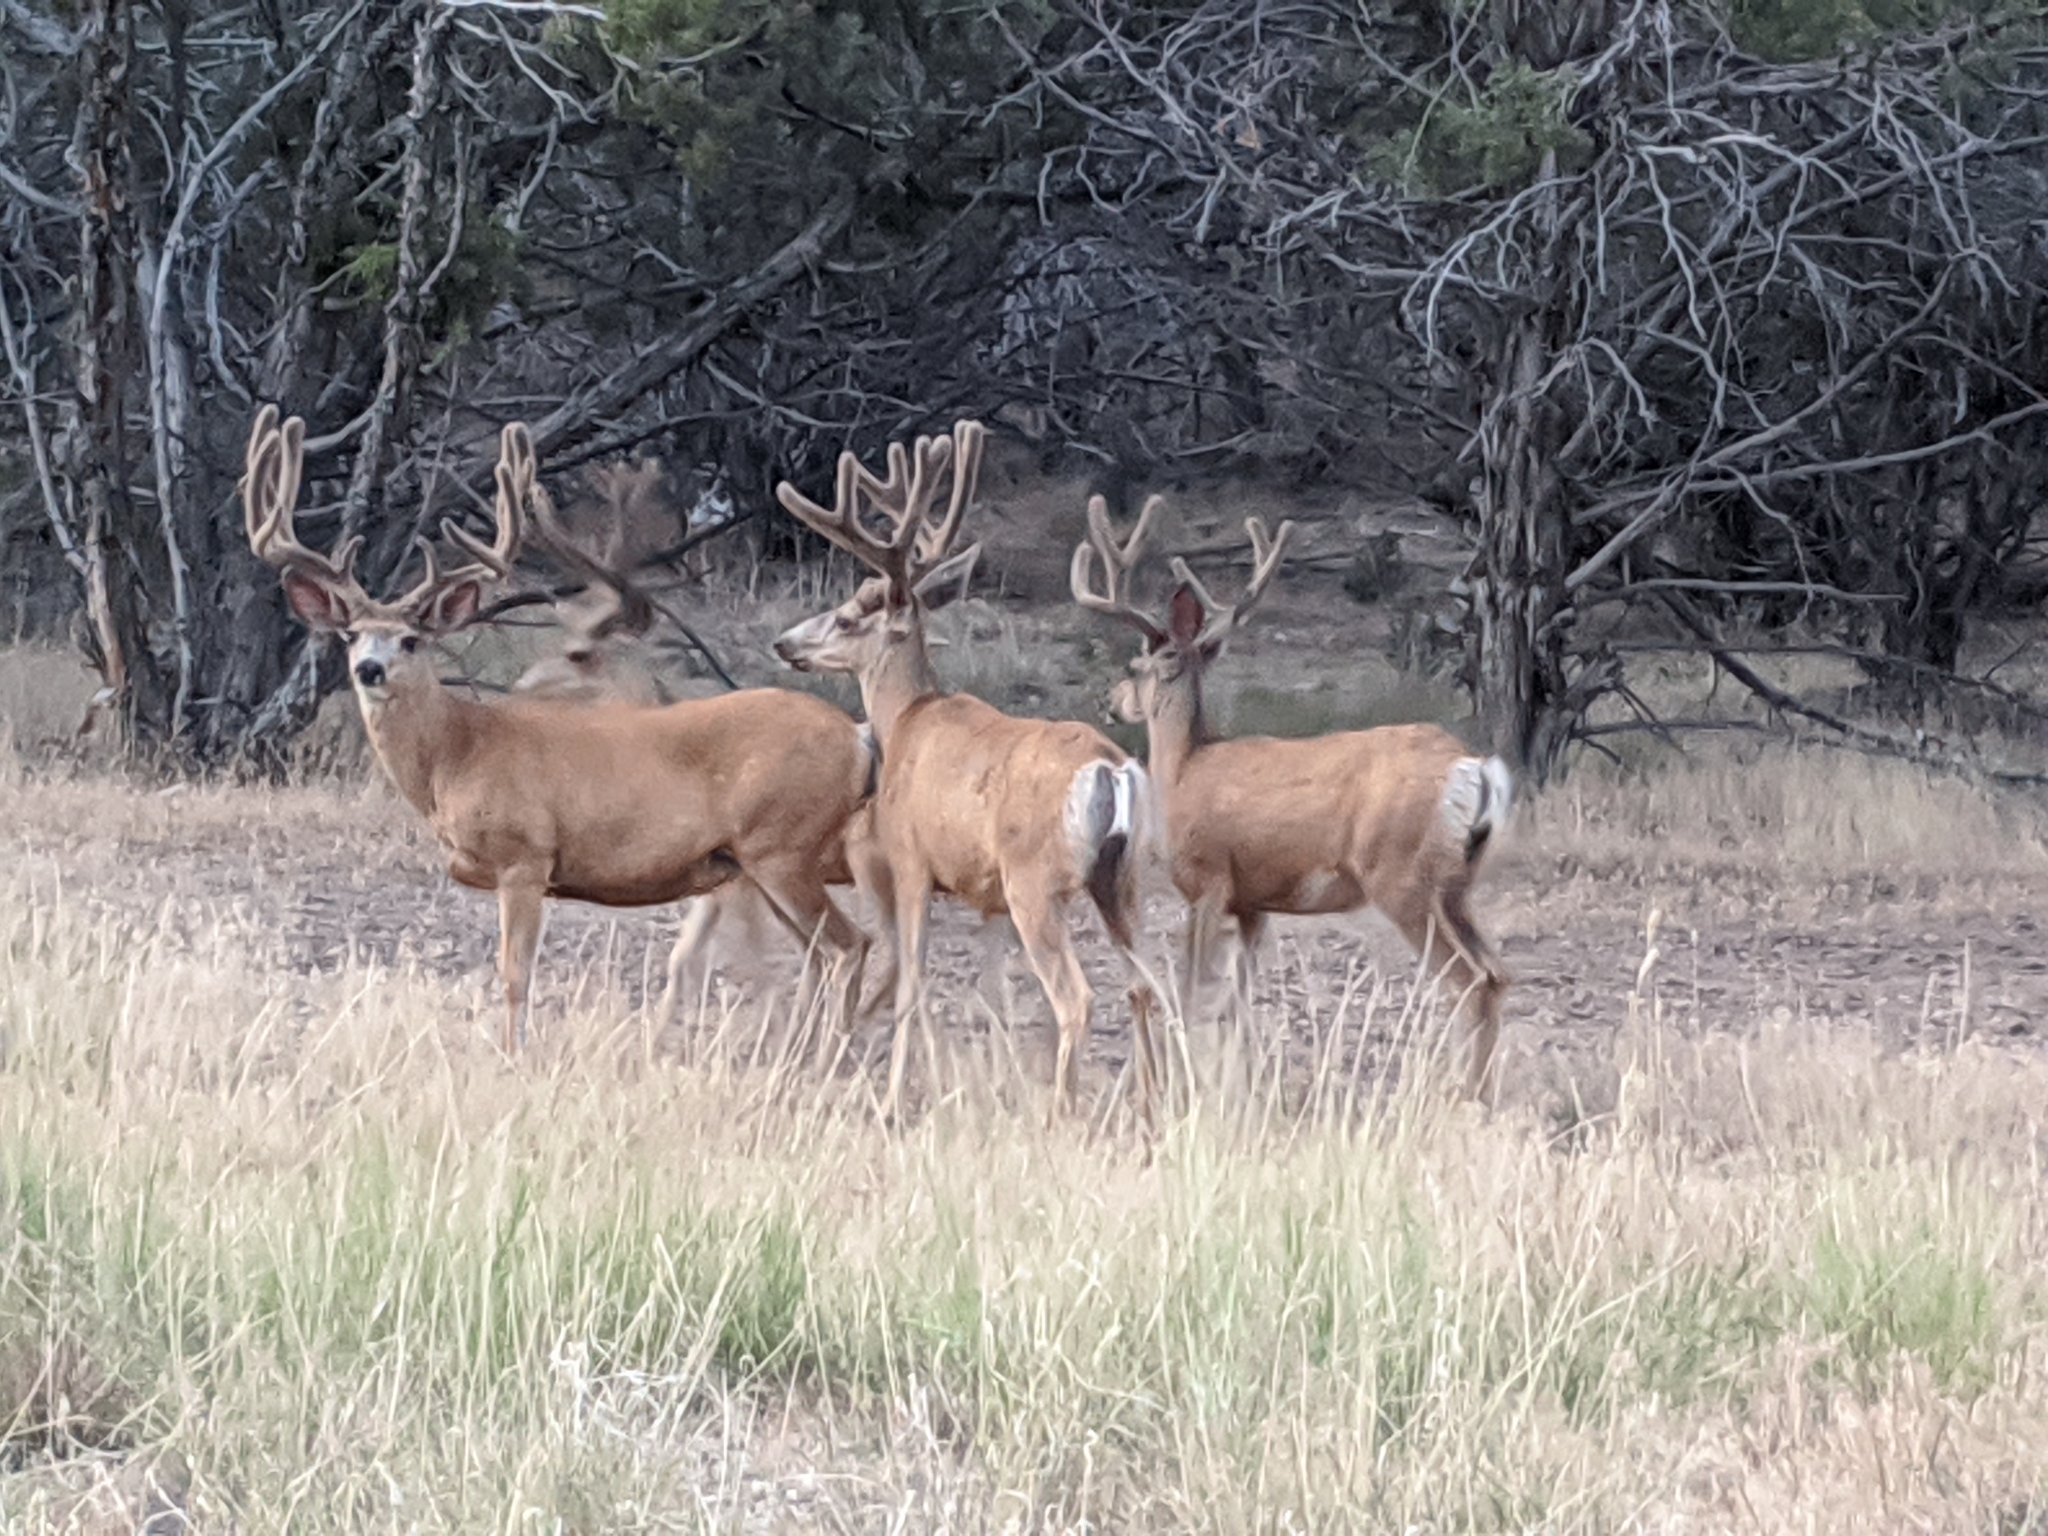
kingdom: Animalia
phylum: Chordata
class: Mammalia
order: Artiodactyla
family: Cervidae
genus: Odocoileus
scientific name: Odocoileus hemionus
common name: Mule deer
